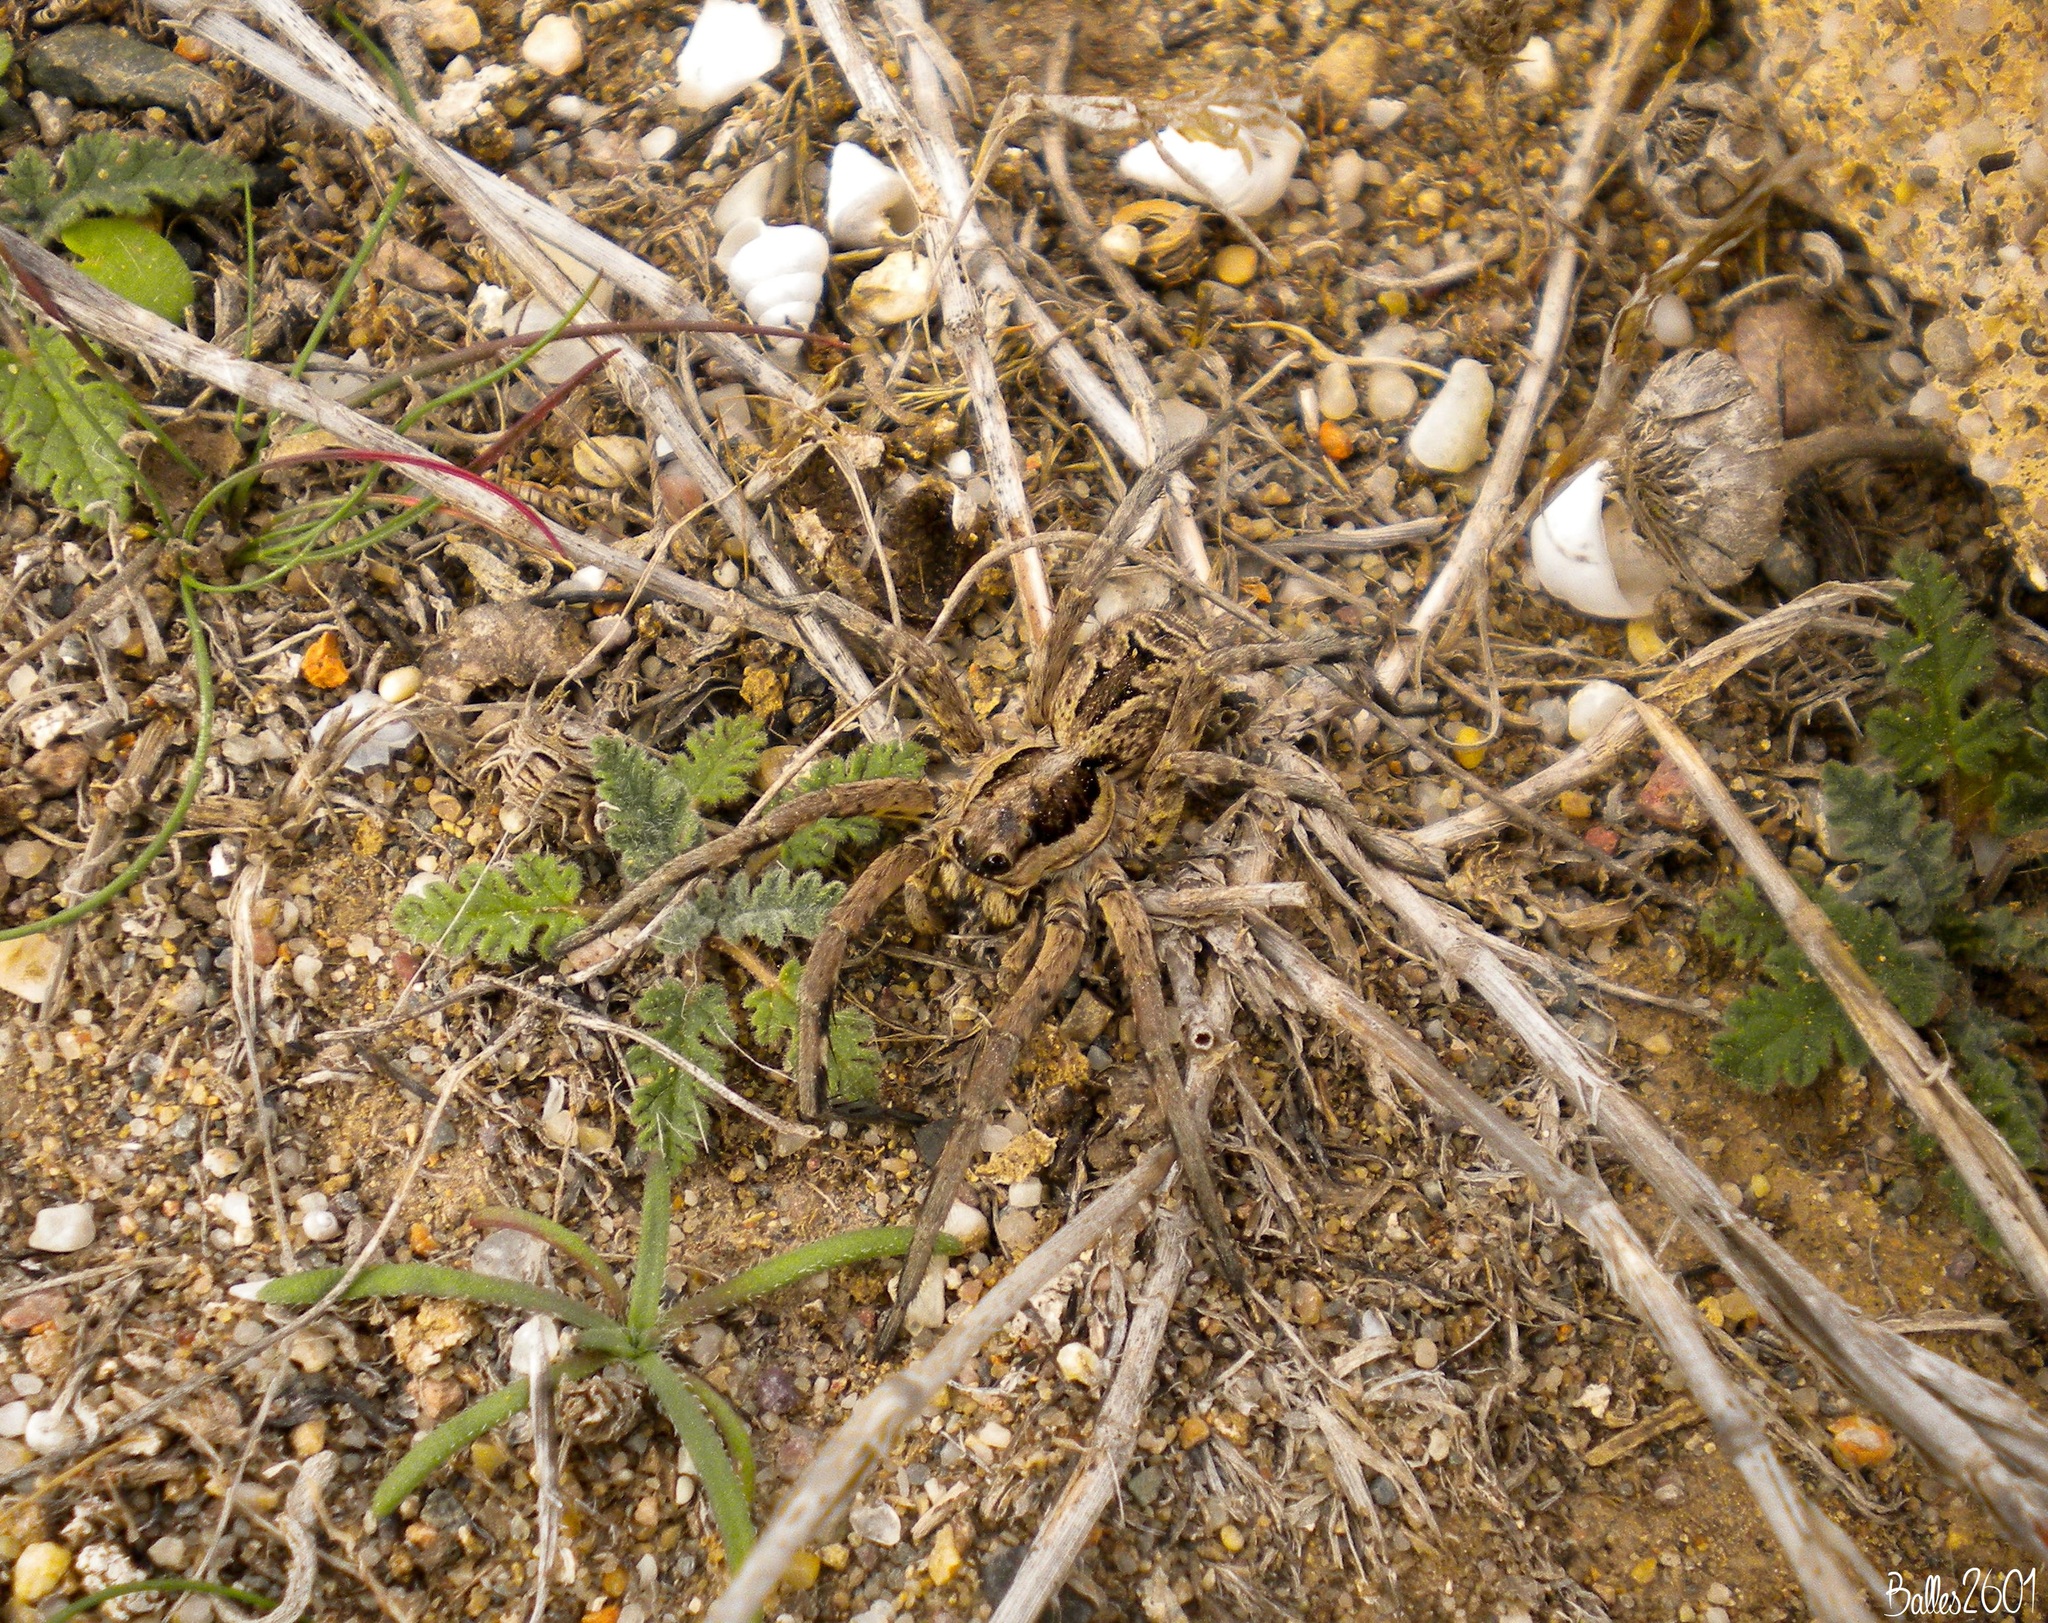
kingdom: Animalia
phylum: Arthropoda
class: Arachnida
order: Araneae
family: Lycosidae
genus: Lycosa
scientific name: Lycosa hispanica
